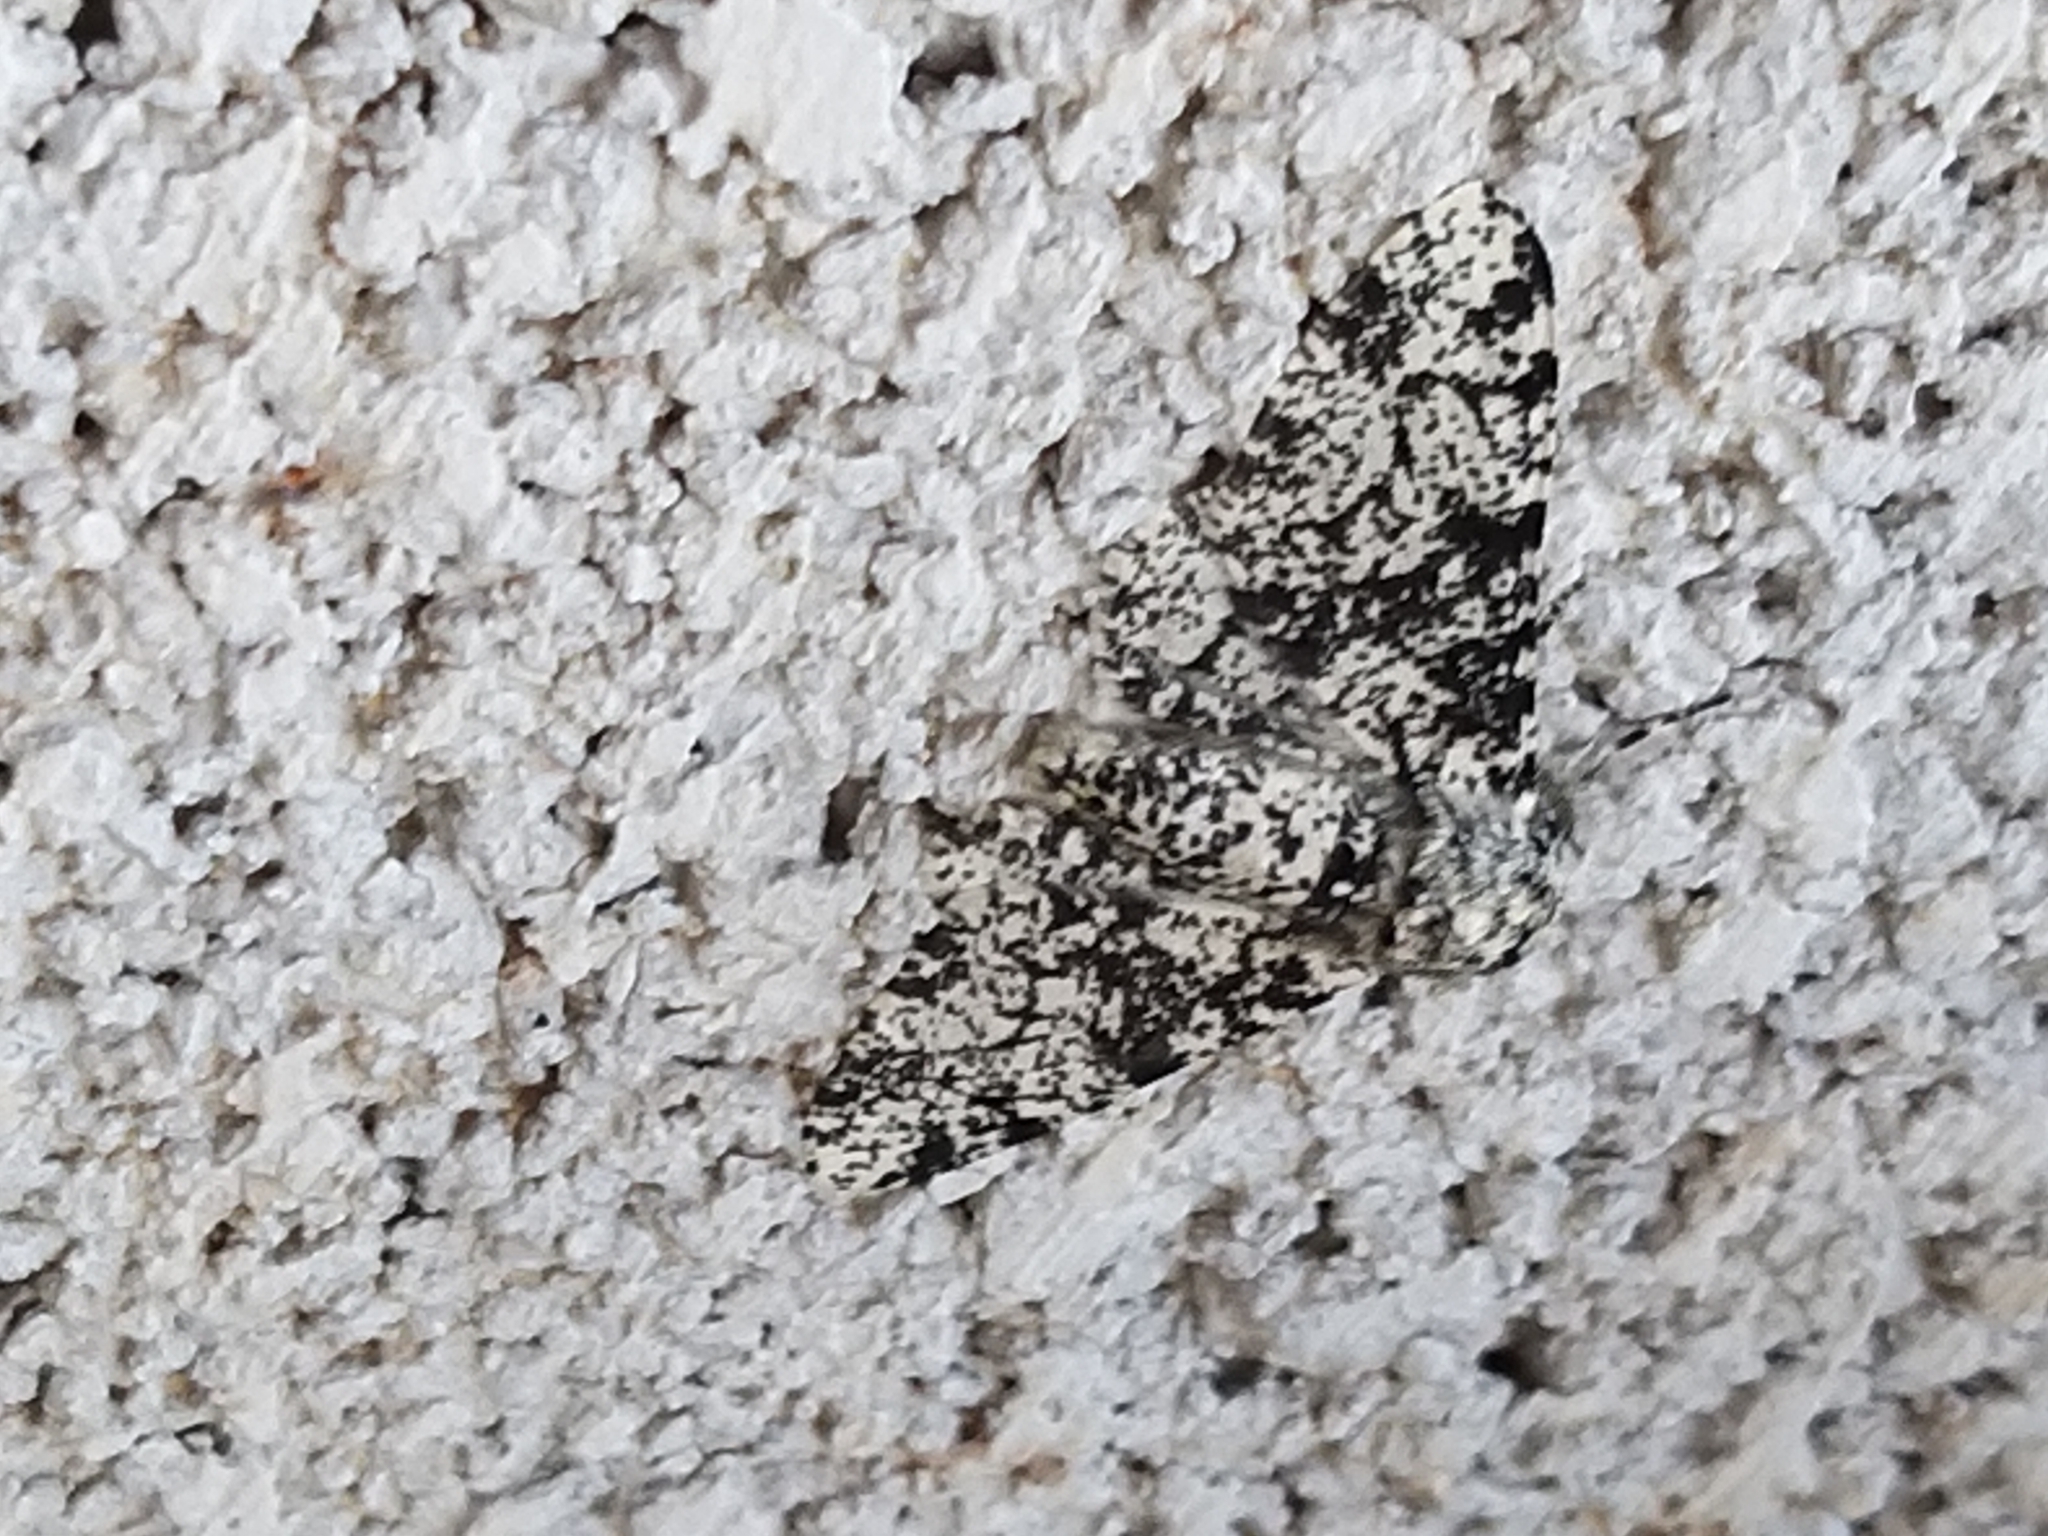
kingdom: Animalia
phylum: Arthropoda
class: Insecta
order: Lepidoptera
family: Geometridae
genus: Biston
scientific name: Biston betularia
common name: Peppered moth
